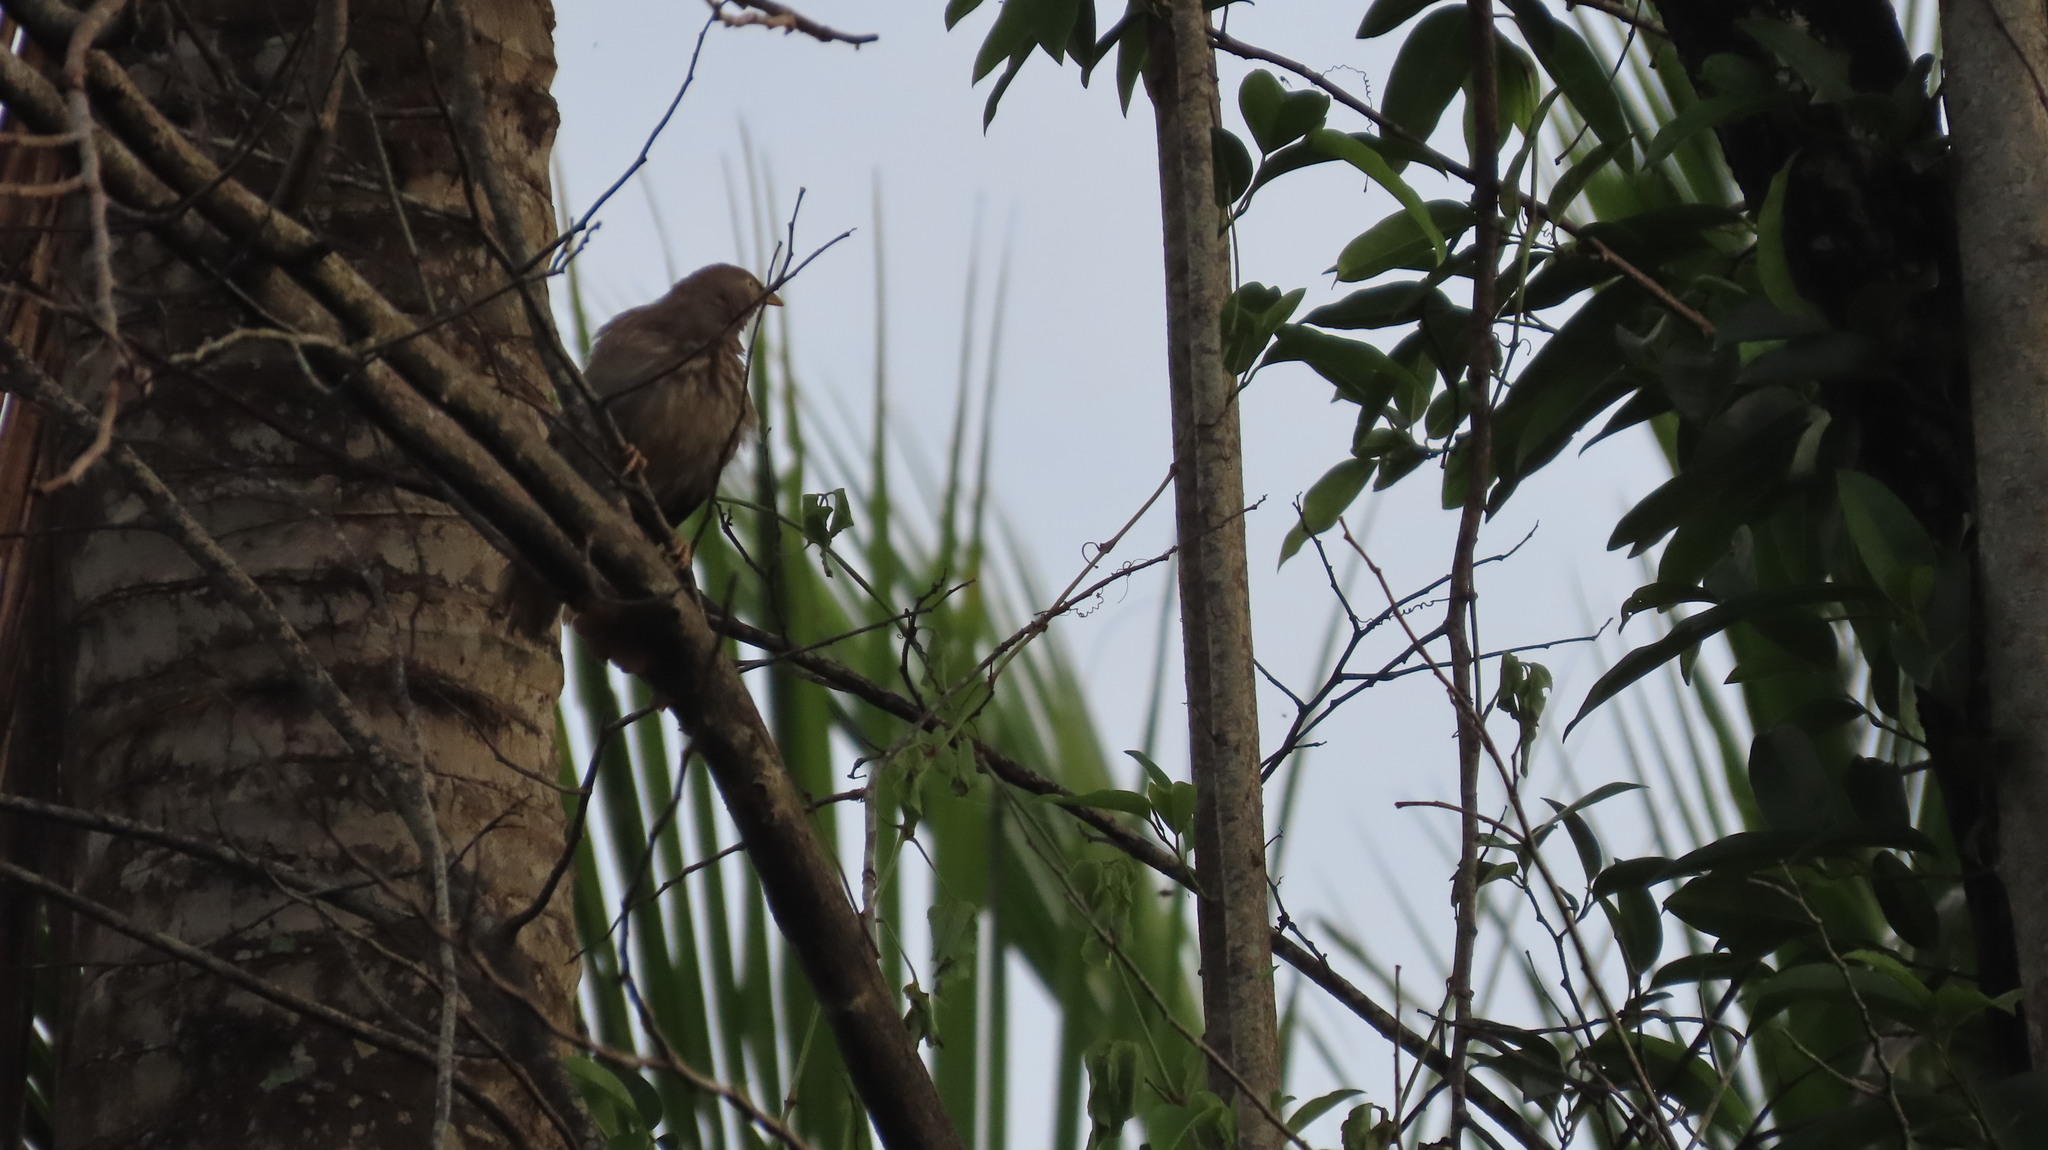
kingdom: Animalia
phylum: Chordata
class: Aves
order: Passeriformes
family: Leiothrichidae
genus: Turdoides
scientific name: Turdoides striata
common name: Jungle babbler
